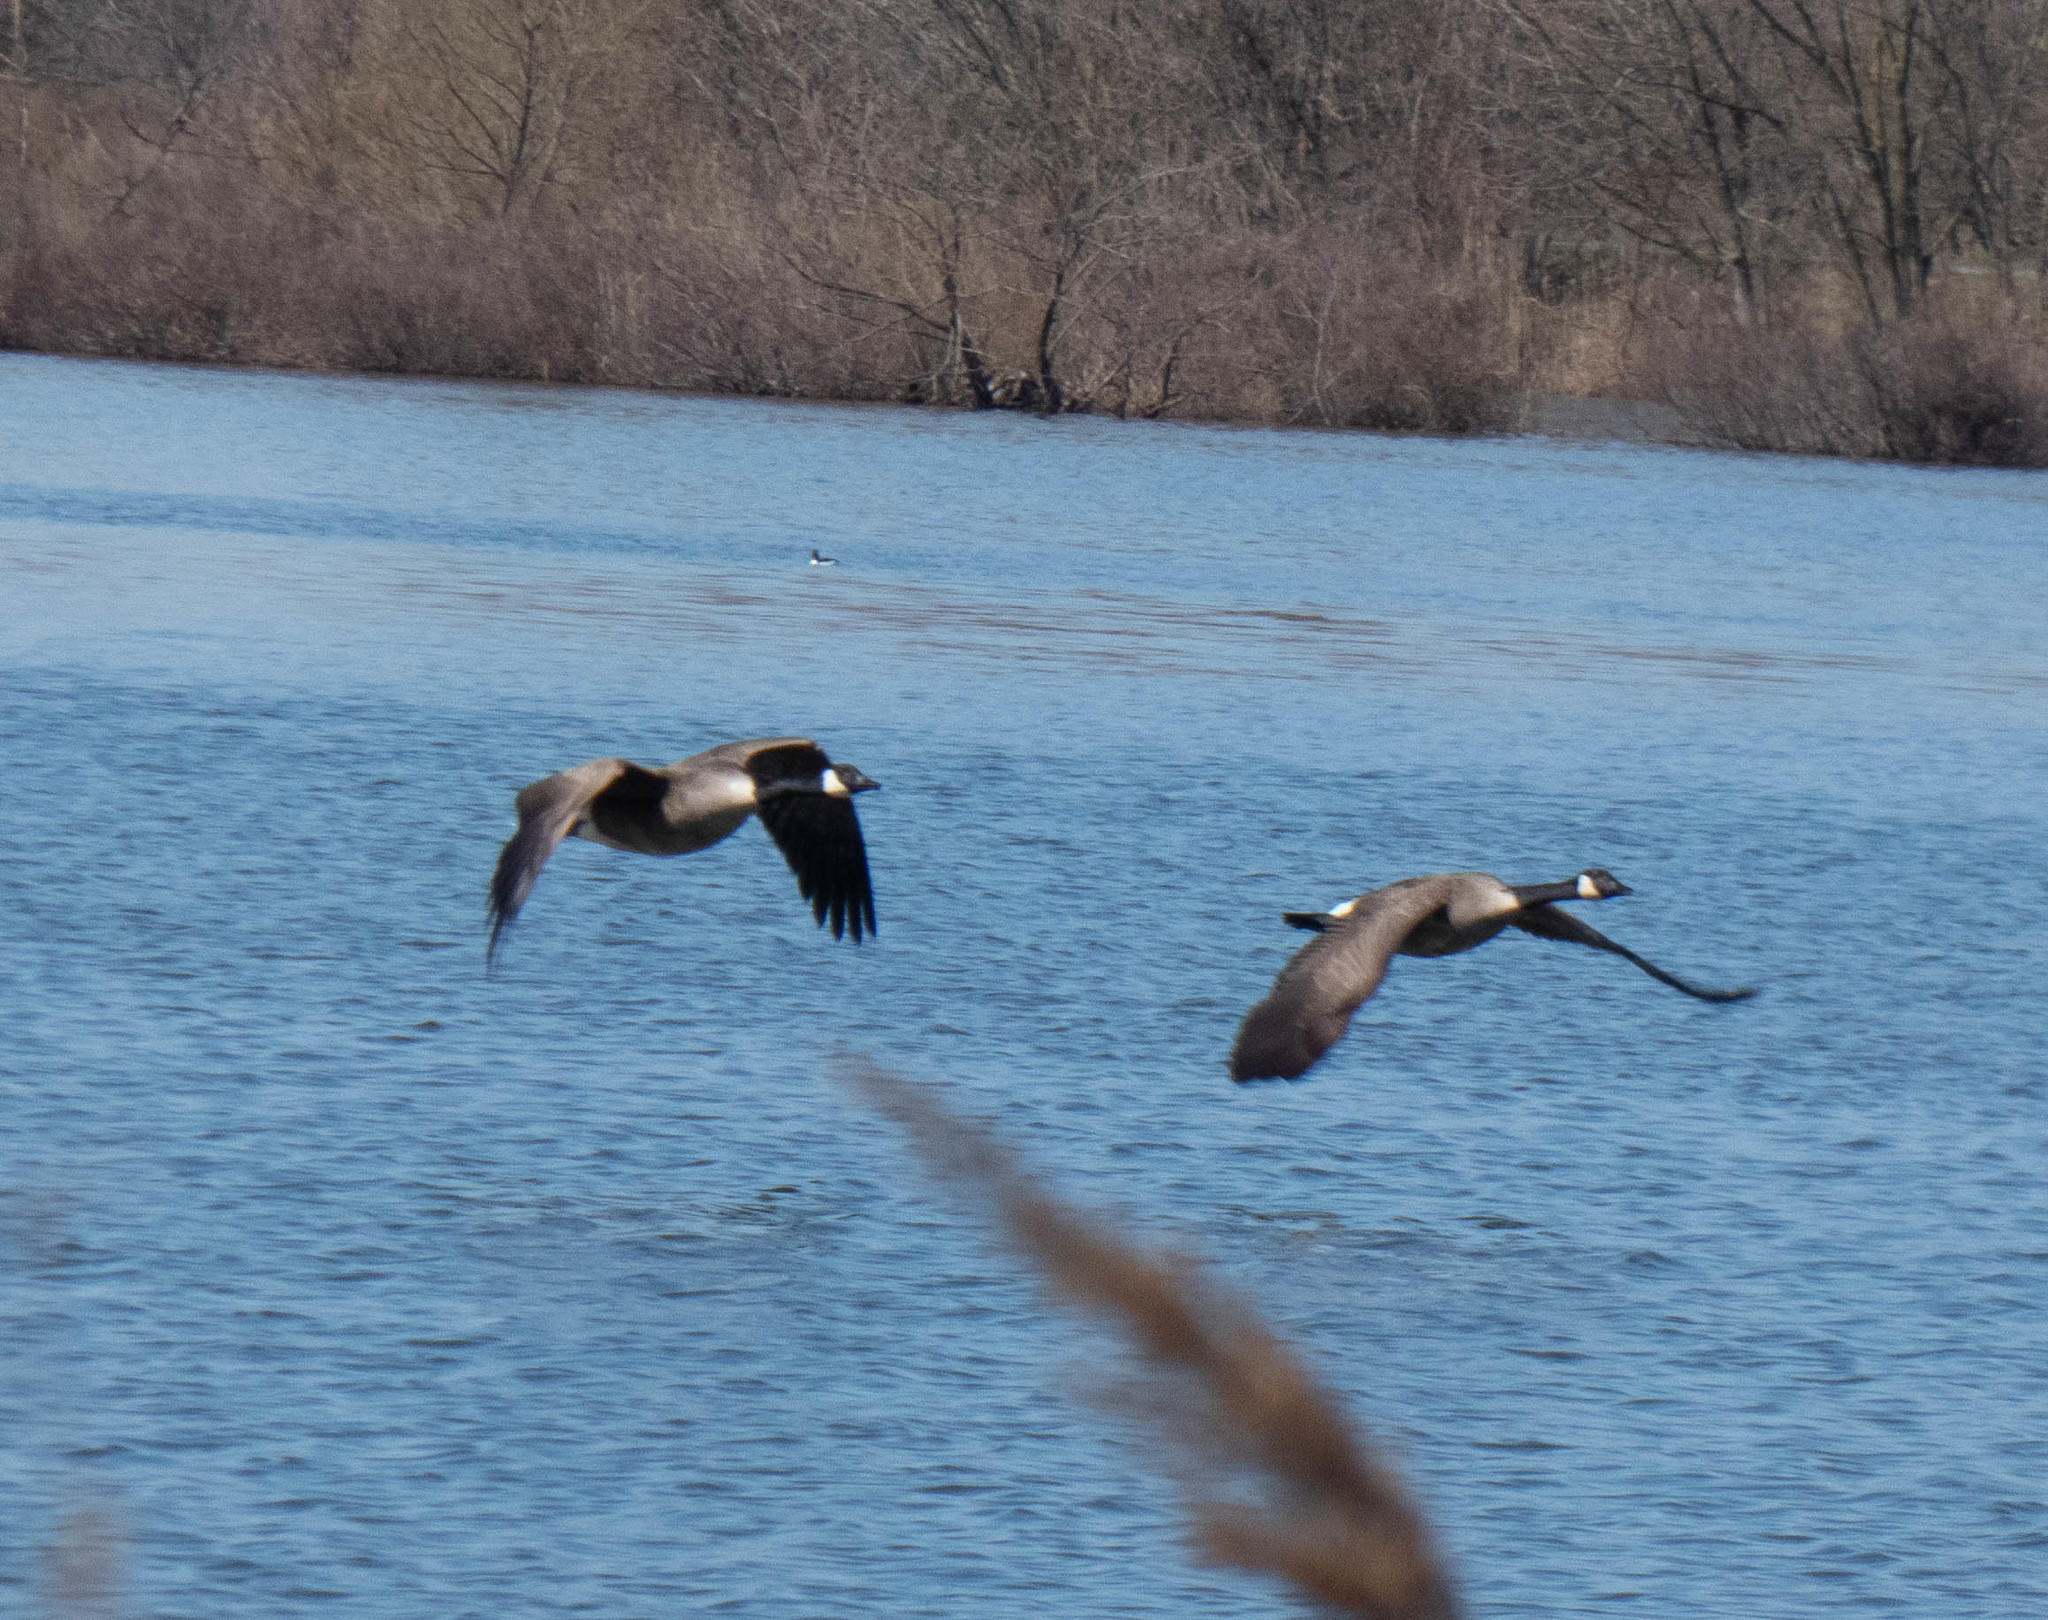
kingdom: Animalia
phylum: Chordata
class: Aves
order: Anseriformes
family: Anatidae
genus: Branta
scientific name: Branta canadensis
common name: Canada goose
